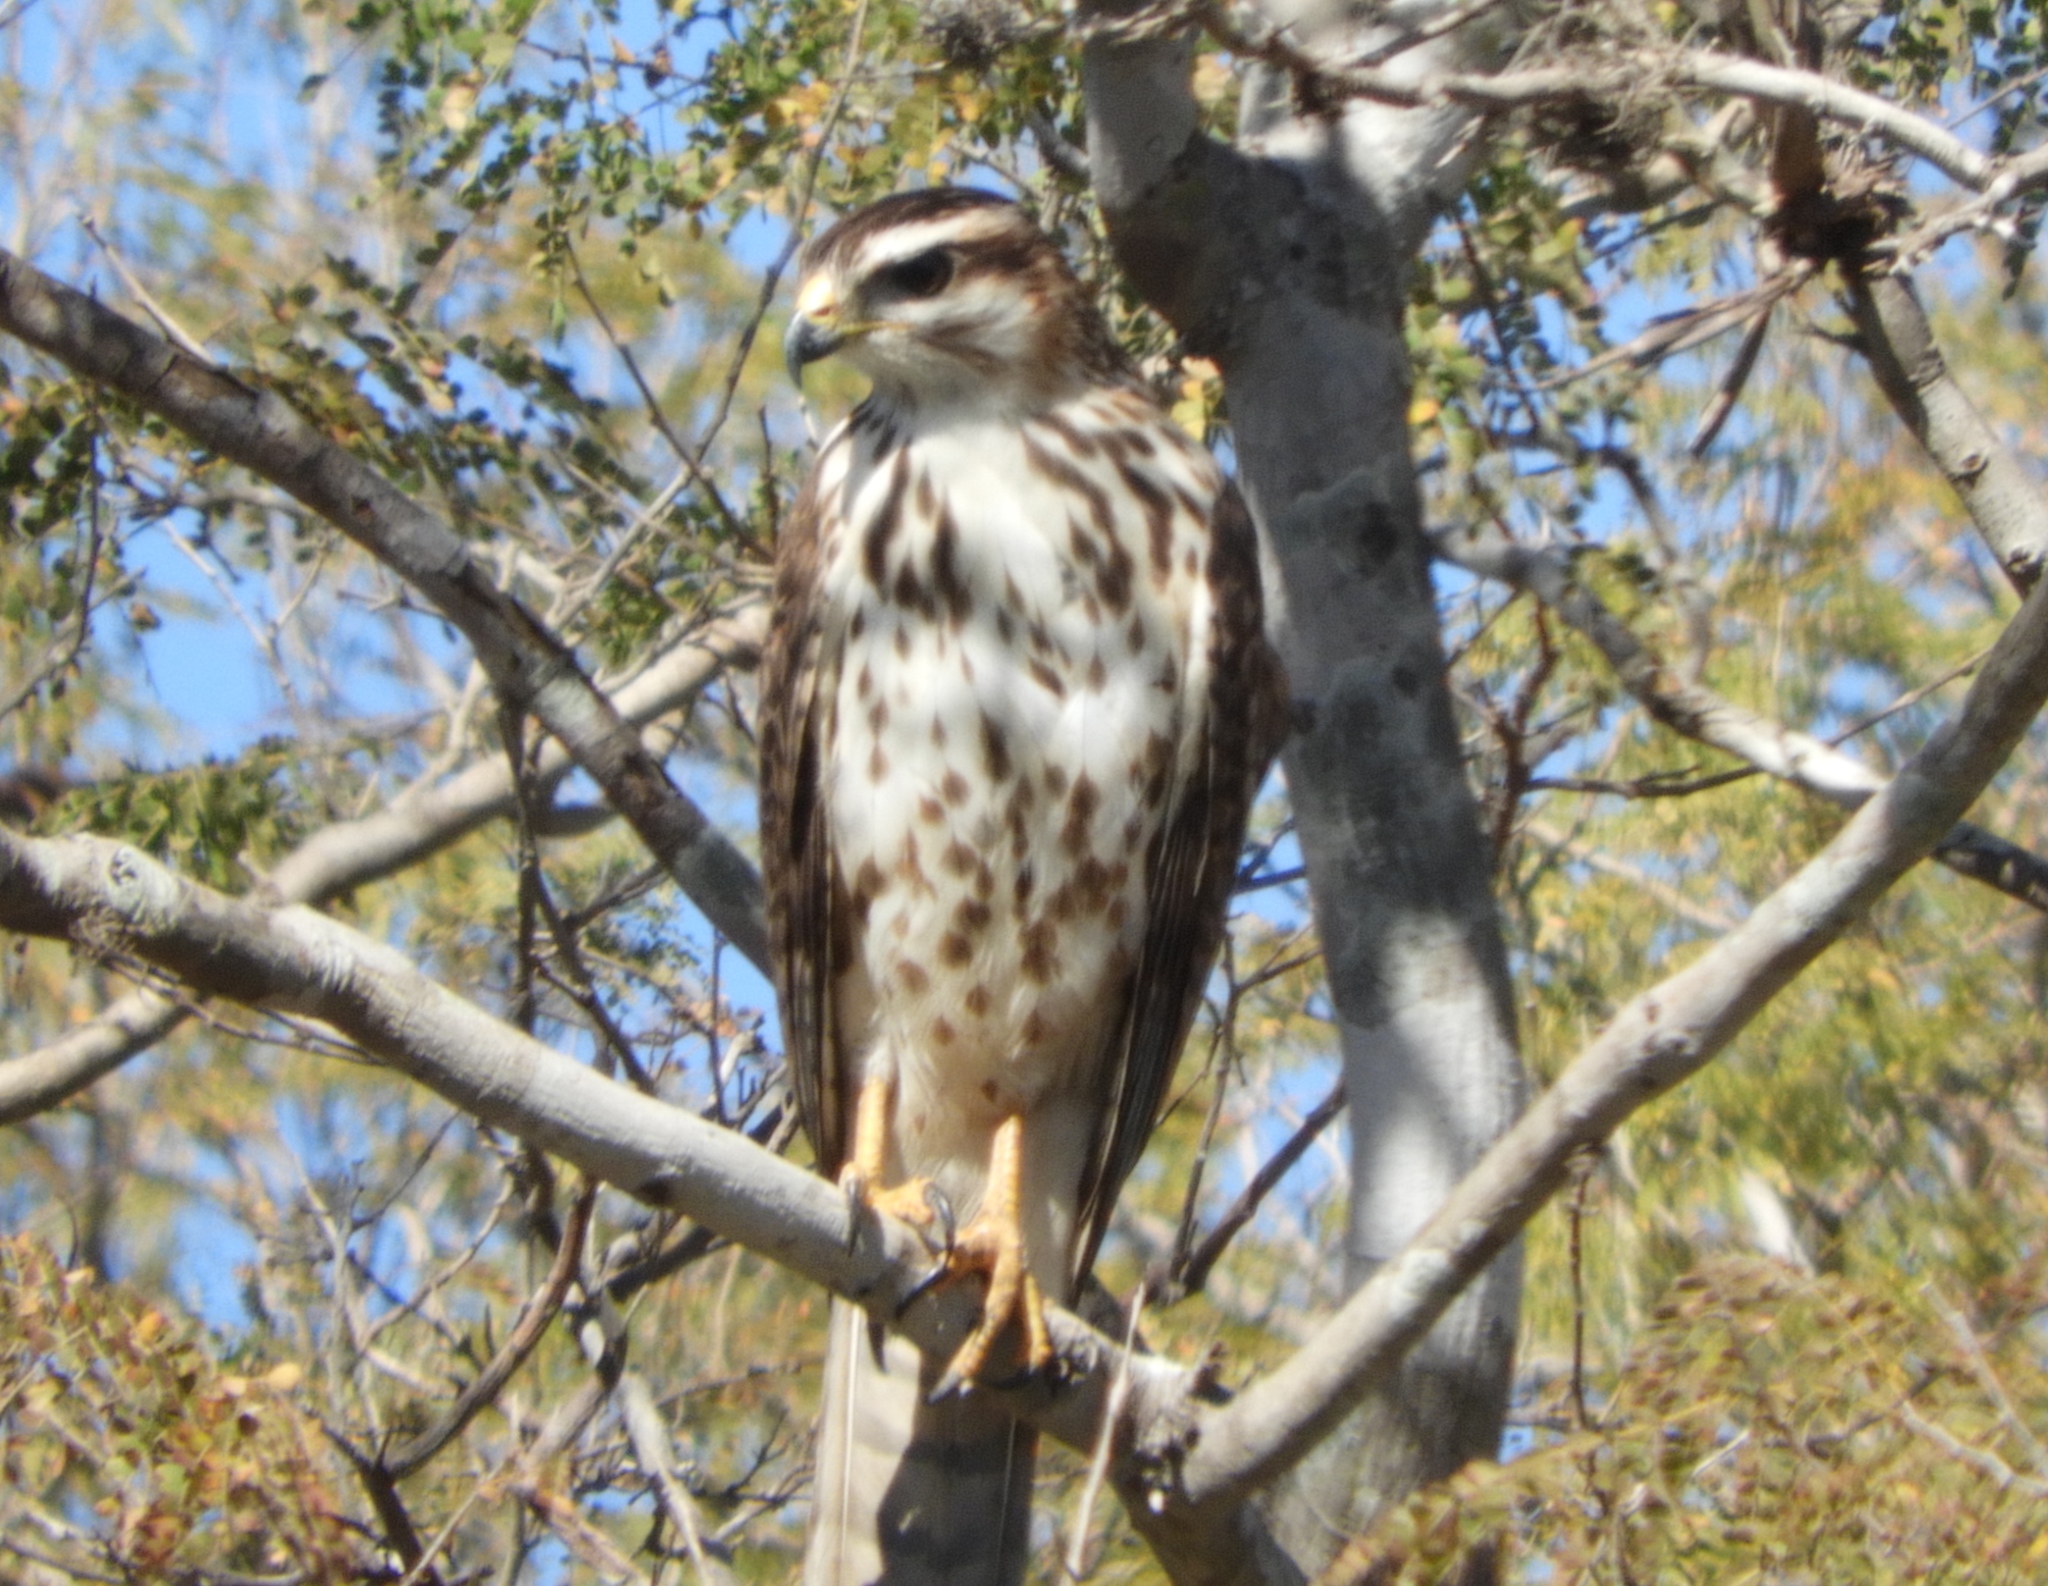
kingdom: Animalia
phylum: Chordata
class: Aves
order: Accipitriformes
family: Accipitridae
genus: Buteo
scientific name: Buteo nitidus
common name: Grey-lined hawk
